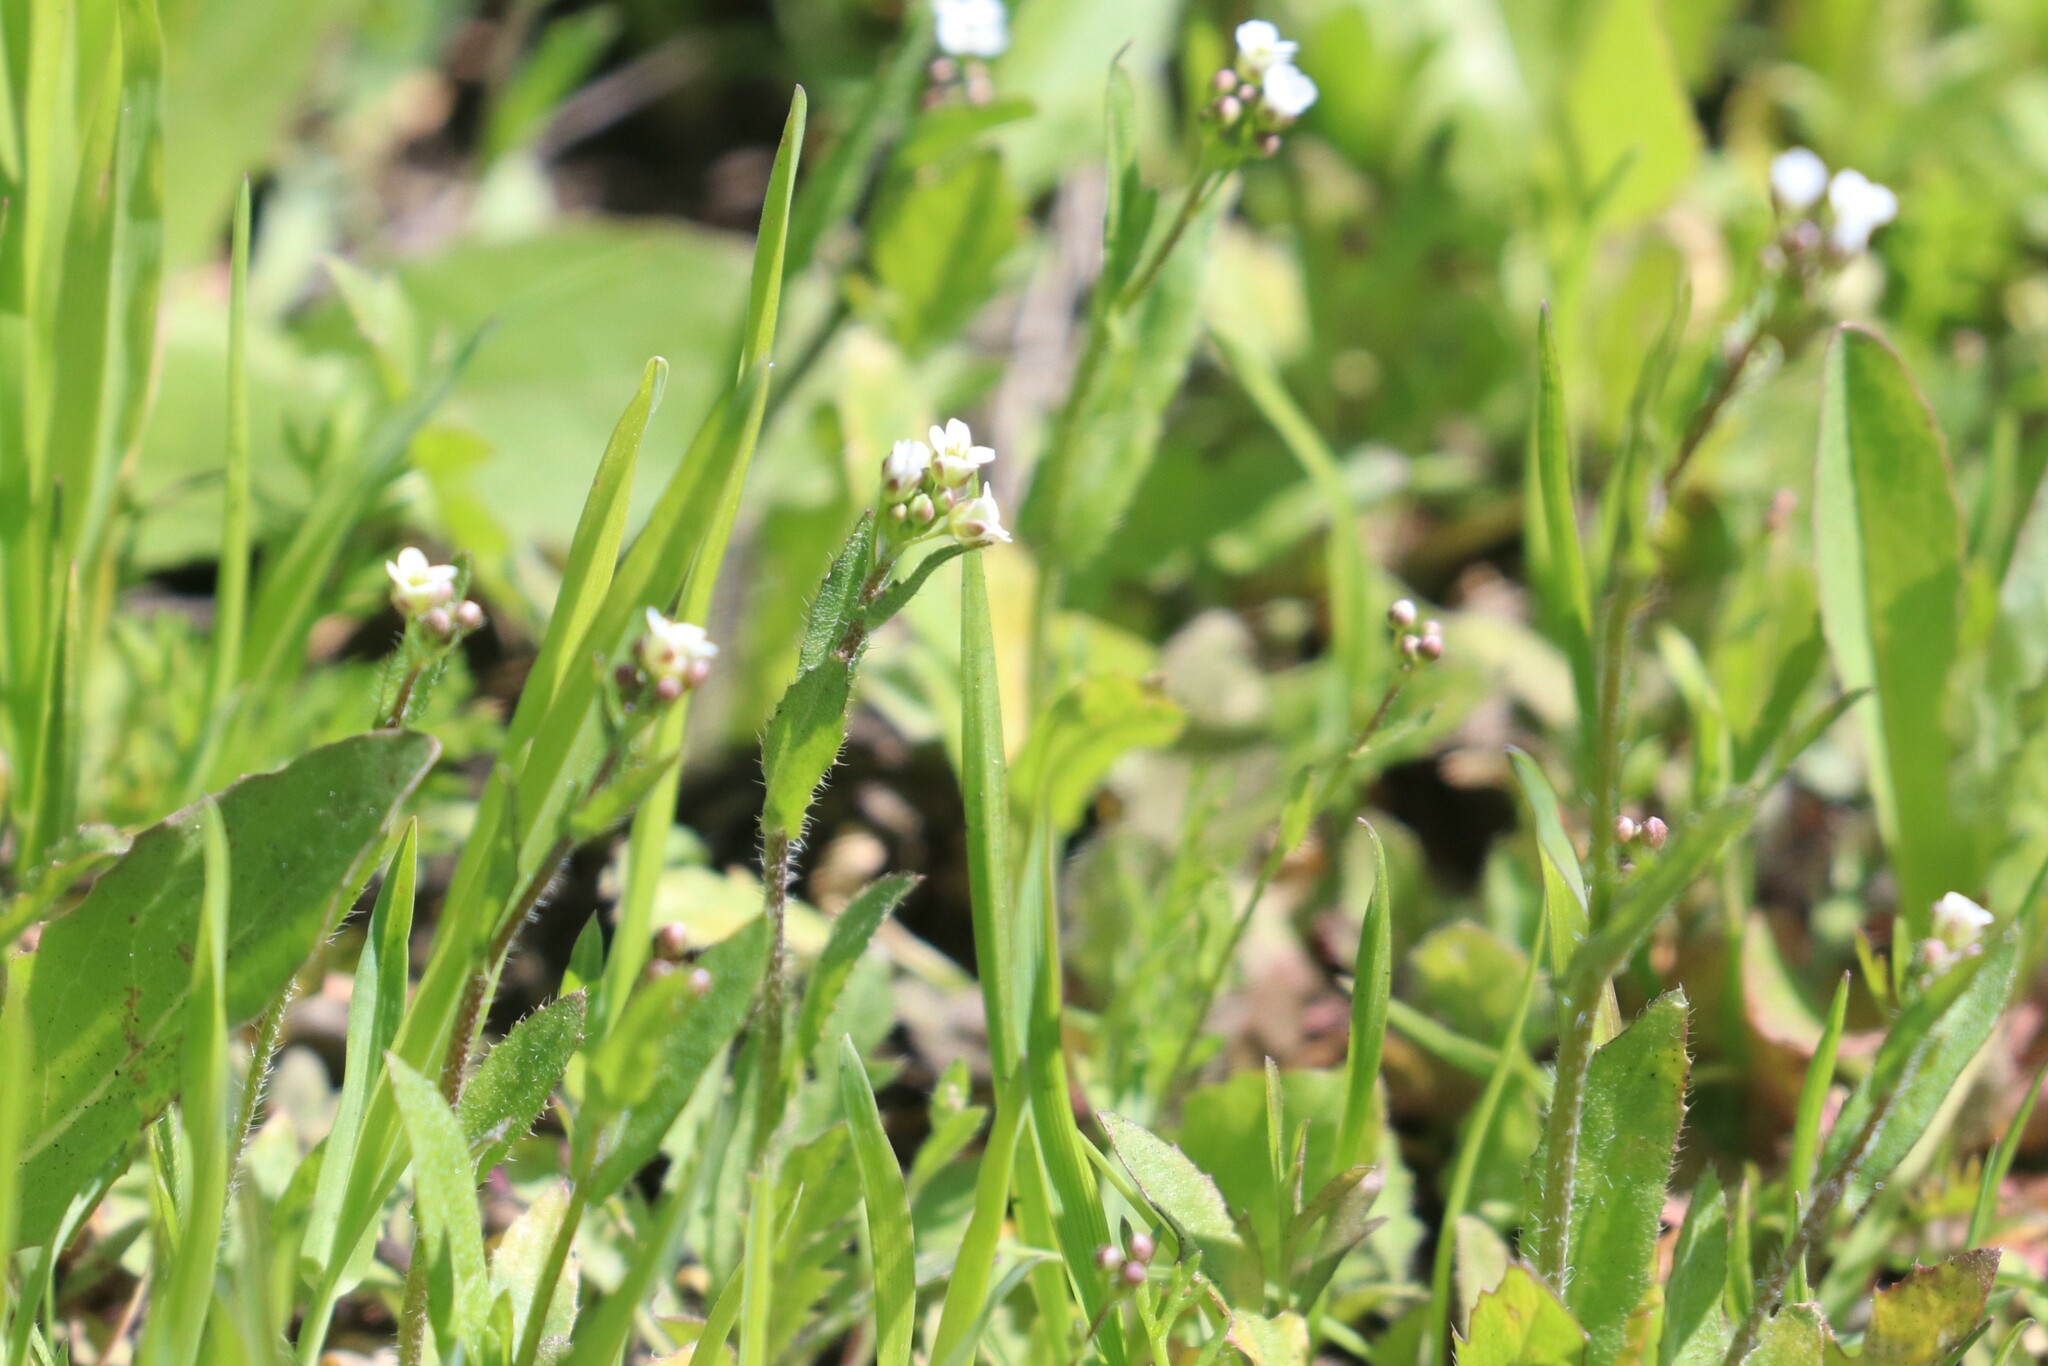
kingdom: Plantae
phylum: Tracheophyta
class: Magnoliopsida
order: Brassicales
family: Brassicaceae
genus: Capsella
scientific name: Capsella bursa-pastoris
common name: Shepherd's purse
